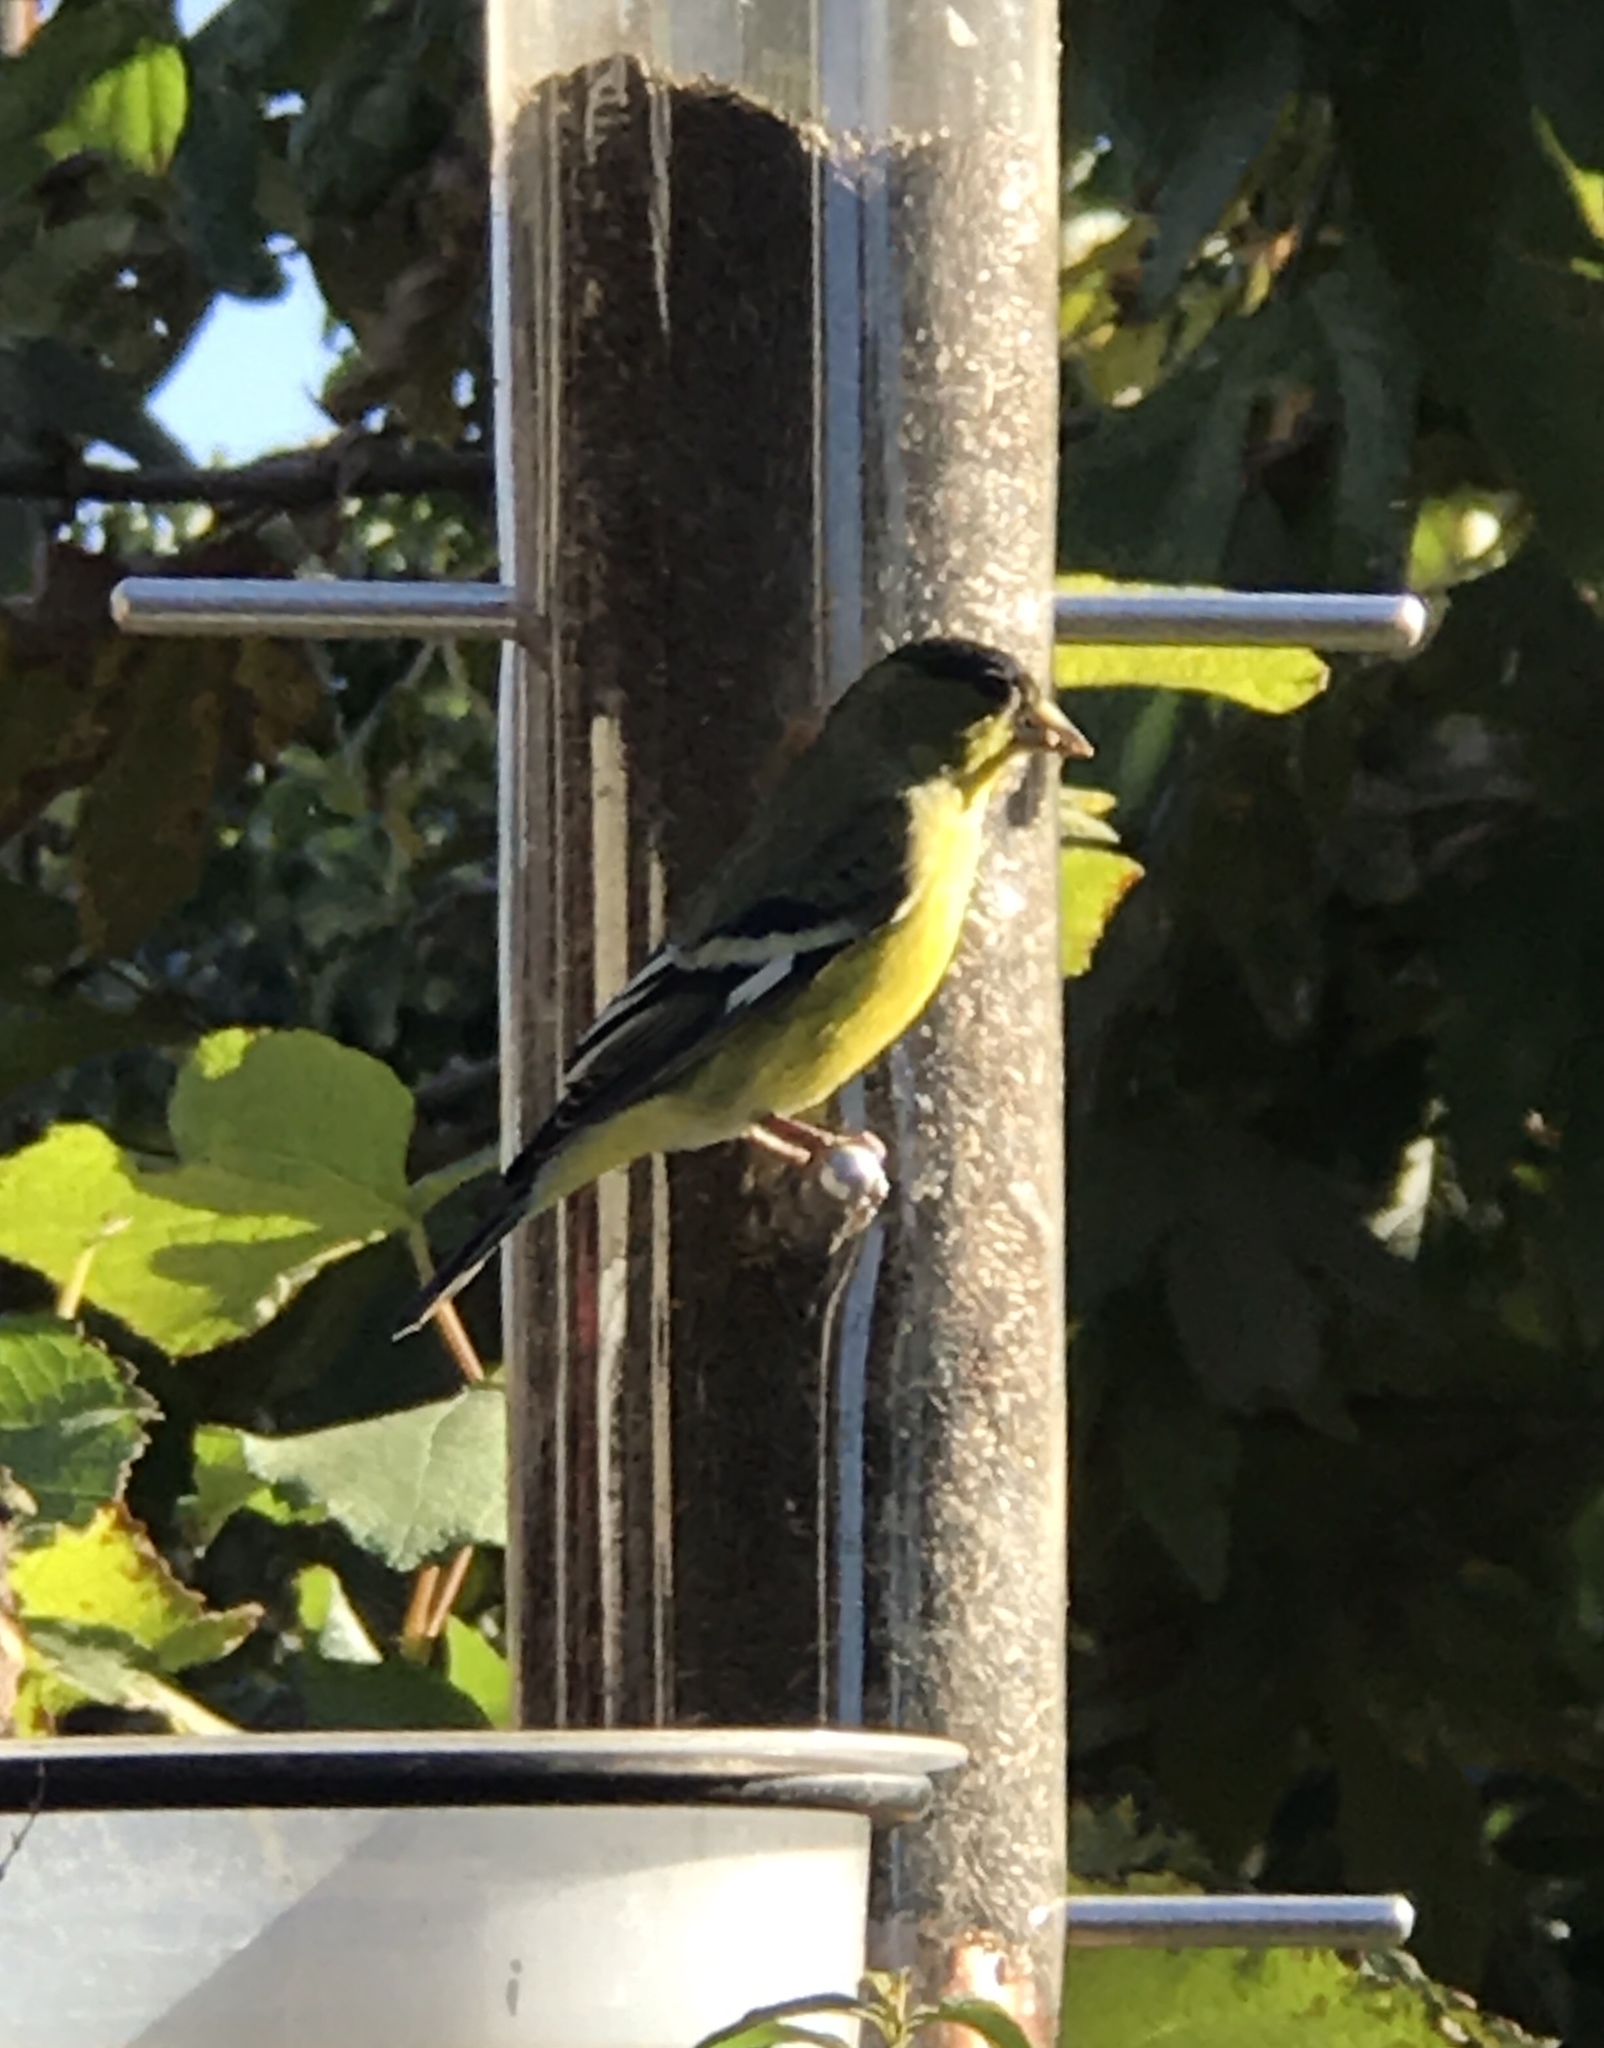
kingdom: Animalia
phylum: Chordata
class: Aves
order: Passeriformes
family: Fringillidae
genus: Spinus
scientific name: Spinus psaltria
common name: Lesser goldfinch
